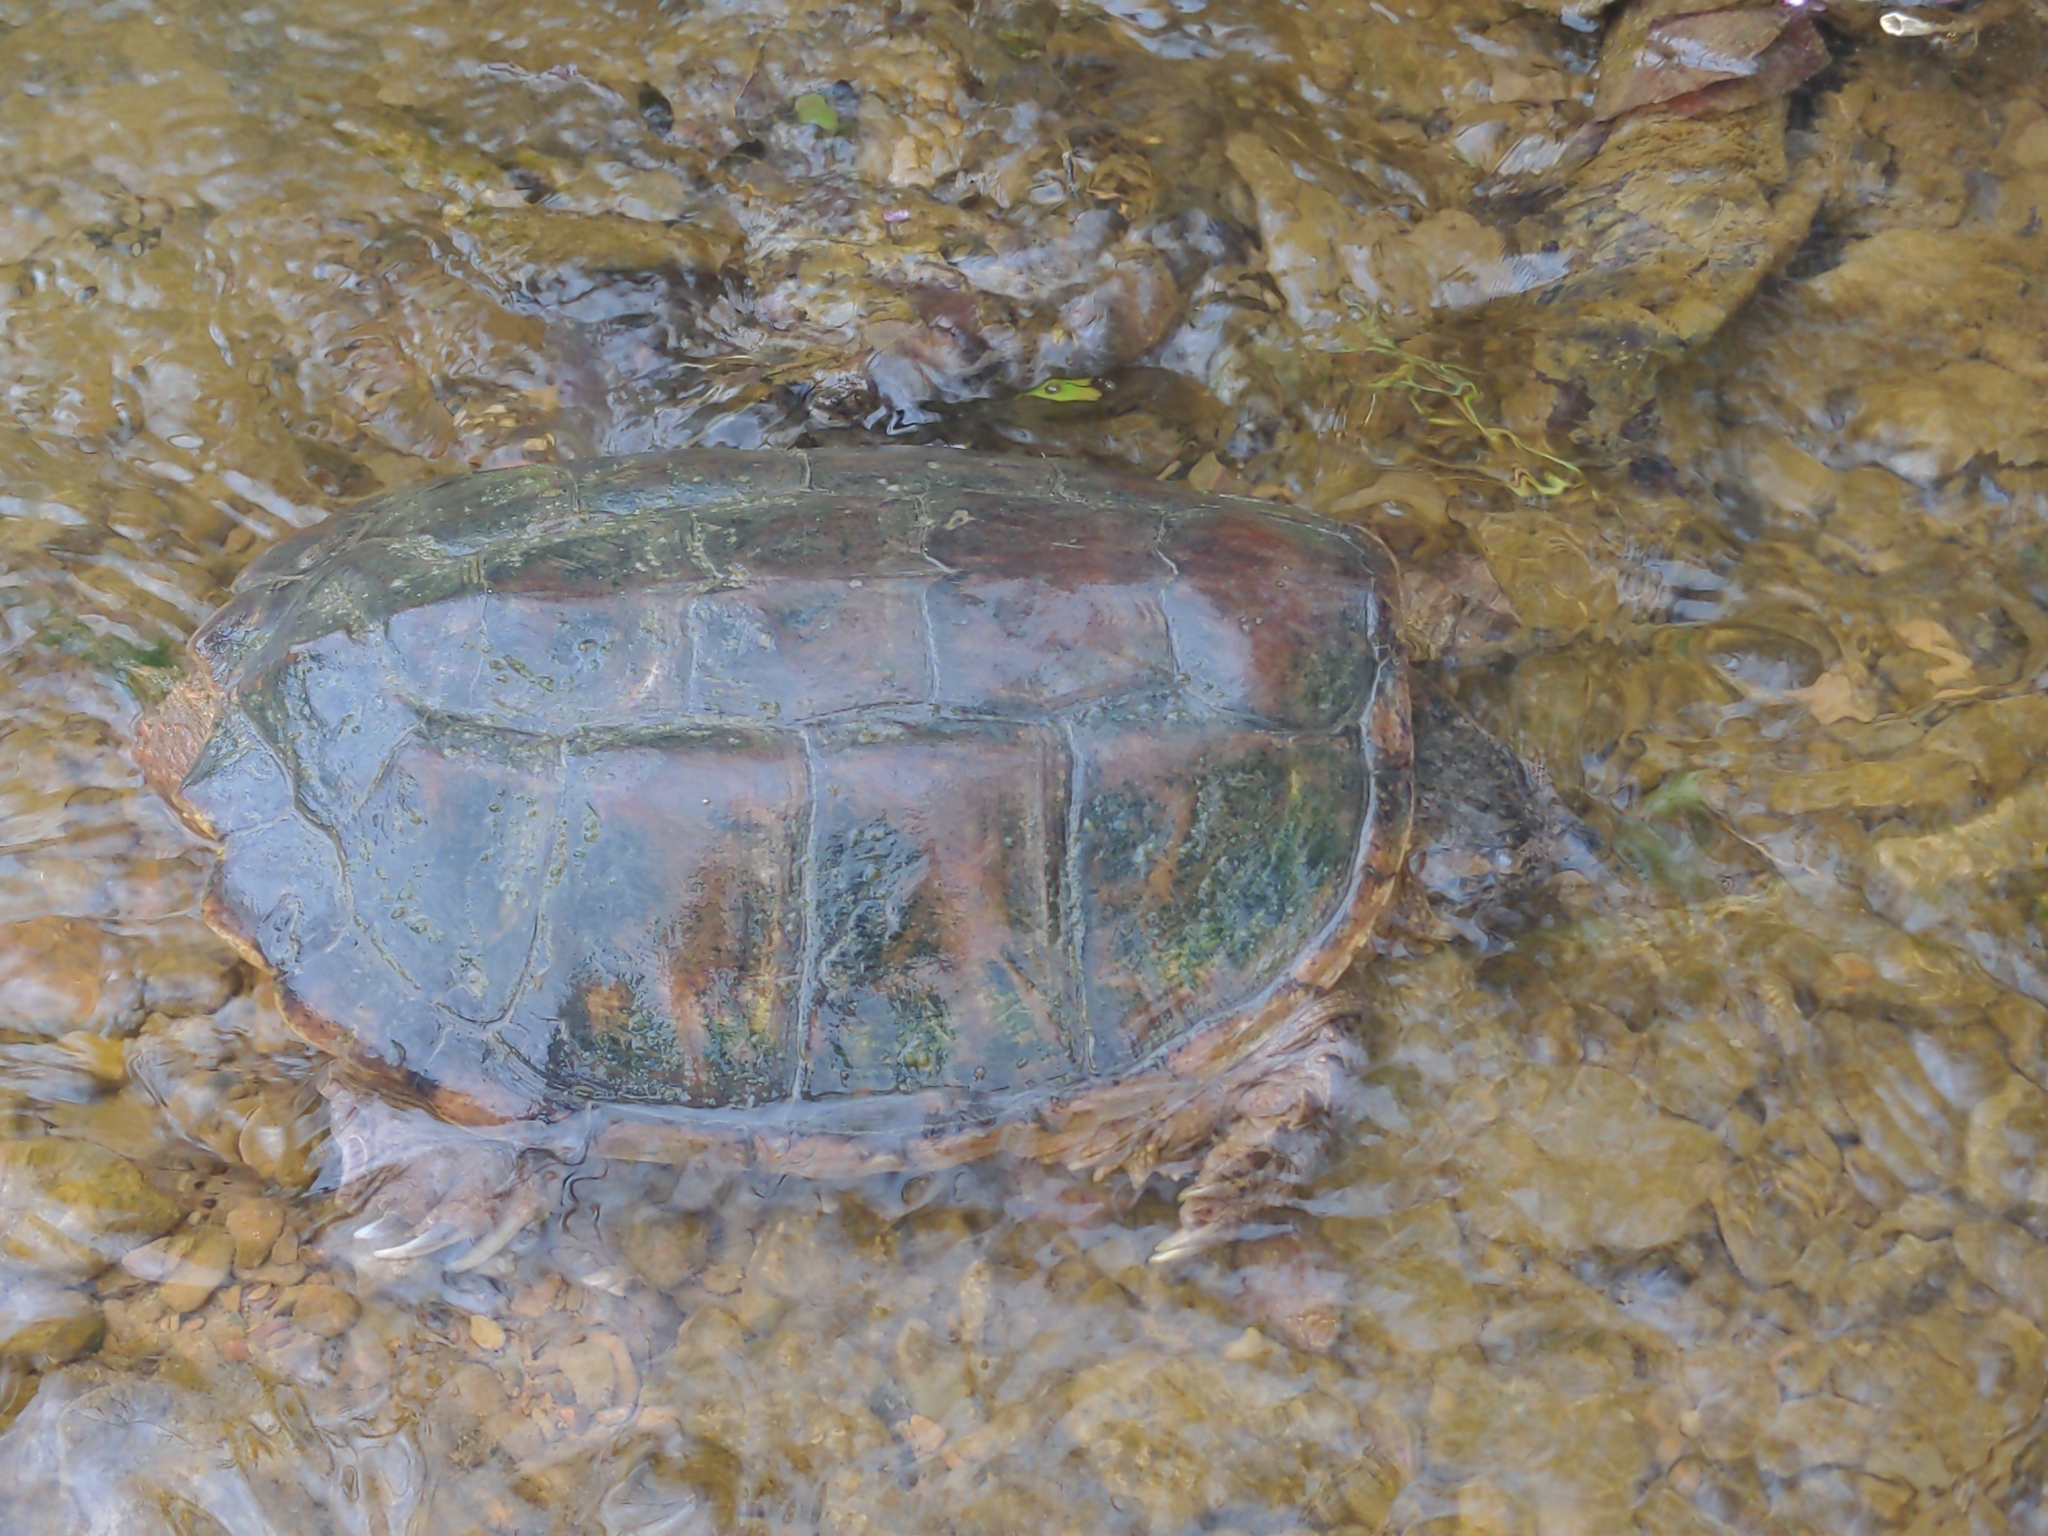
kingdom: Animalia
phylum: Chordata
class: Testudines
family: Chelydridae
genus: Chelydra
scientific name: Chelydra serpentina
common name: Common snapping turtle
